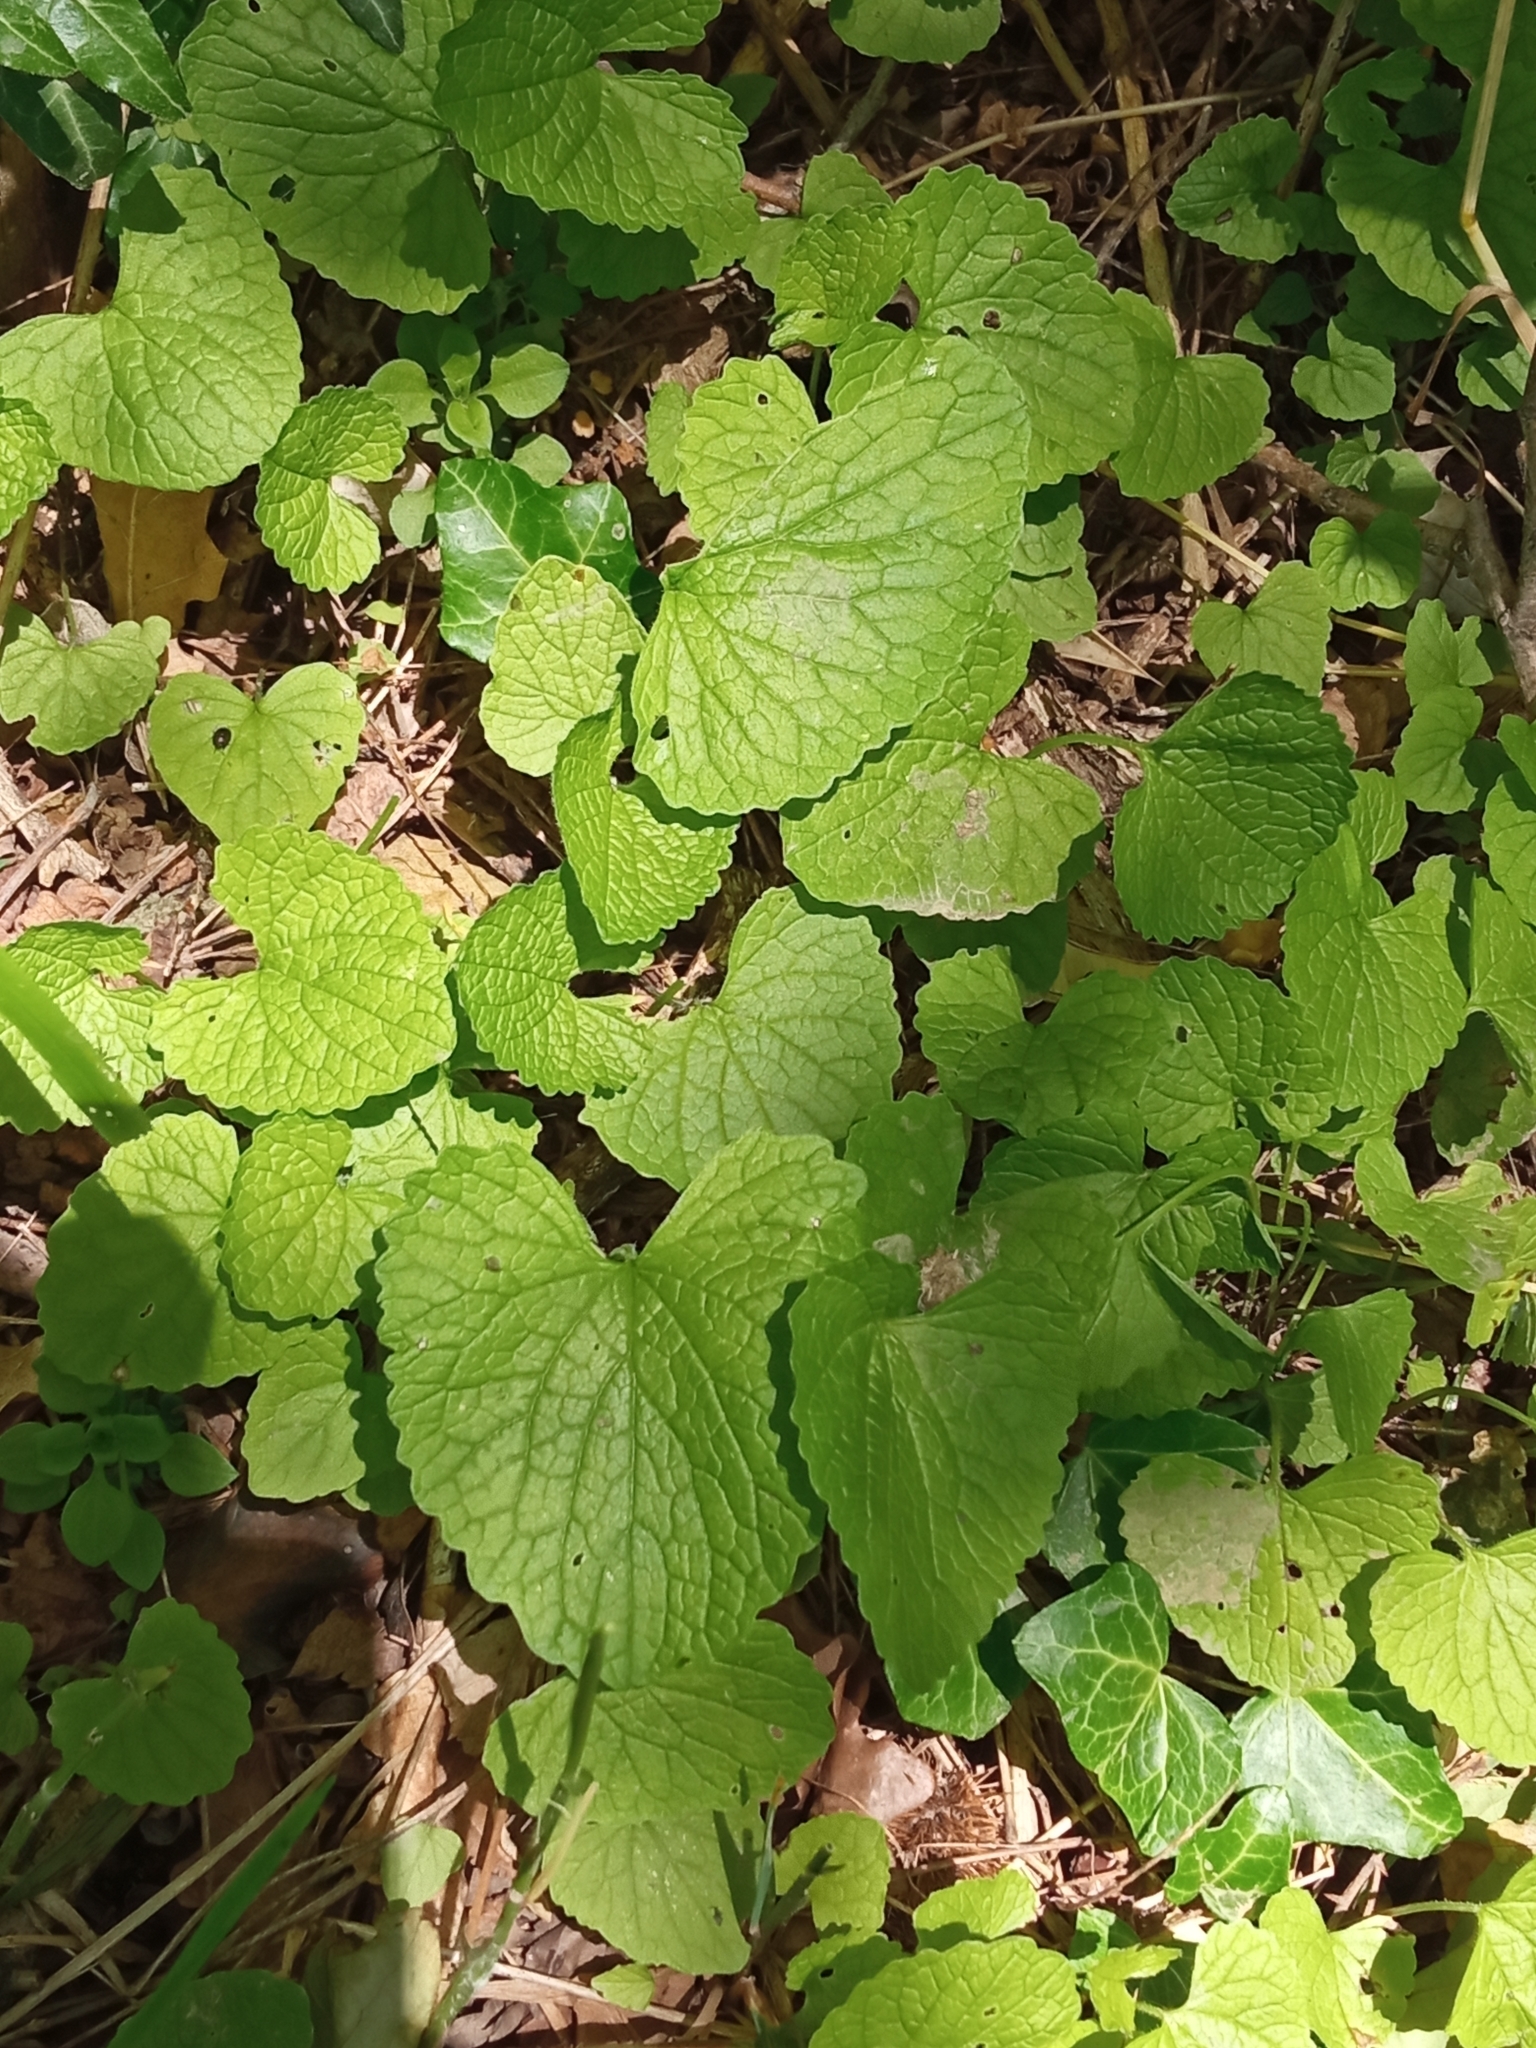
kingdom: Plantae
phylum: Tracheophyta
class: Magnoliopsida
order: Brassicales
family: Brassicaceae
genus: Alliaria
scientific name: Alliaria petiolata
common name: Garlic mustard
